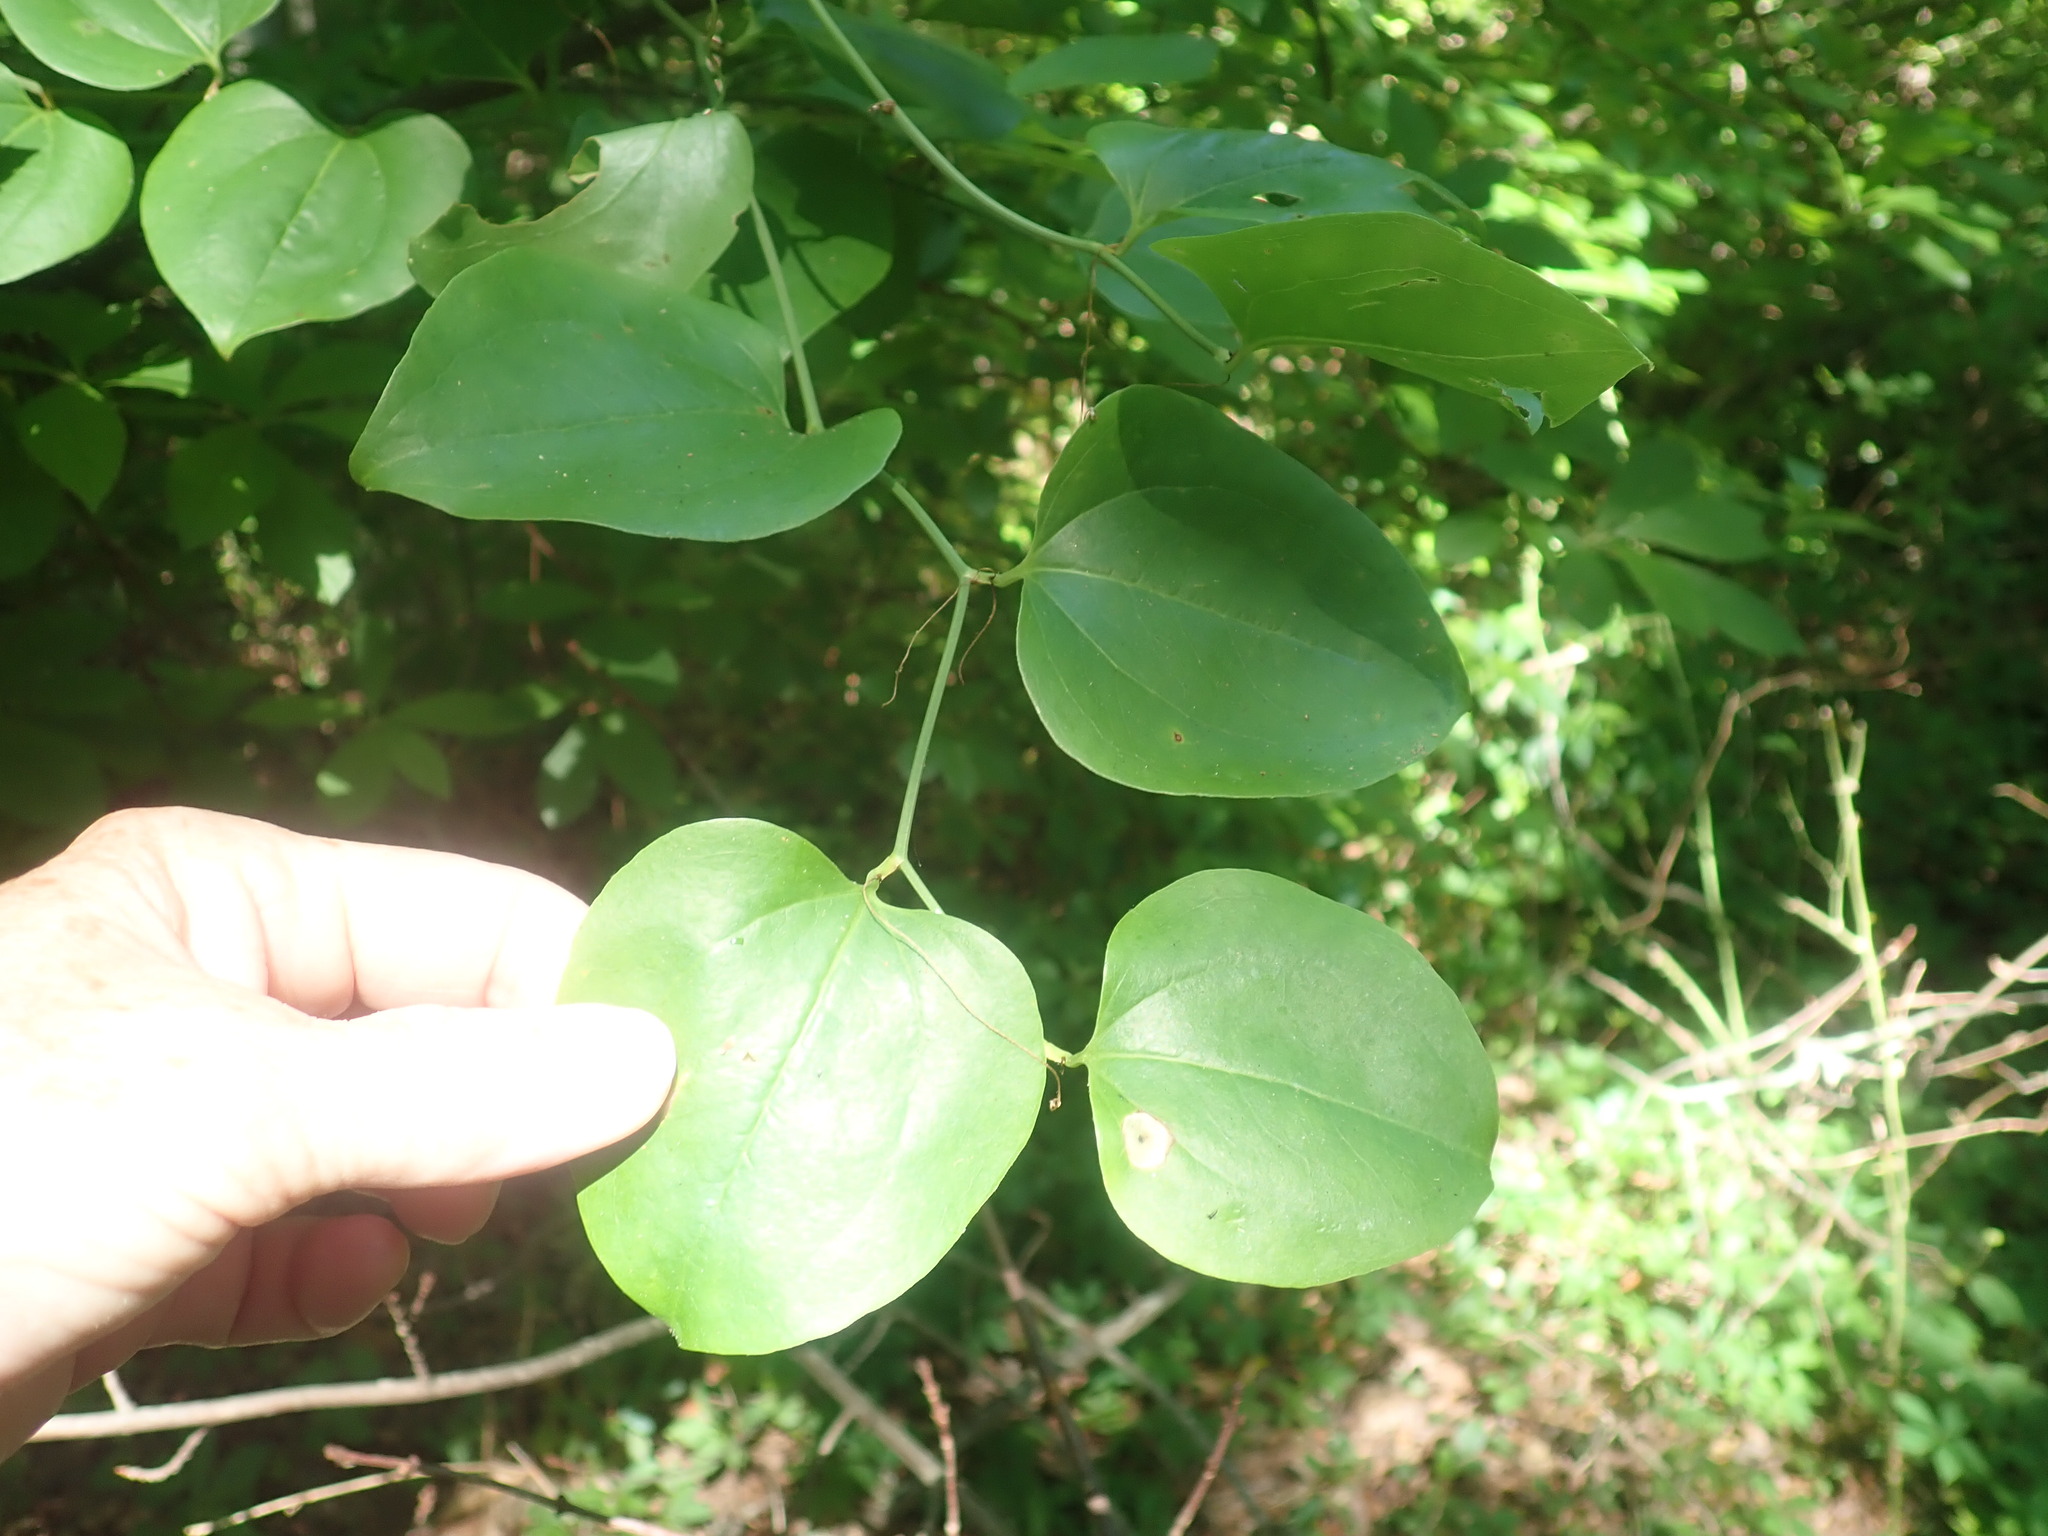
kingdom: Plantae
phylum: Tracheophyta
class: Liliopsida
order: Liliales
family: Smilacaceae
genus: Smilax
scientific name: Smilax rotundifolia
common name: Bullbriar
